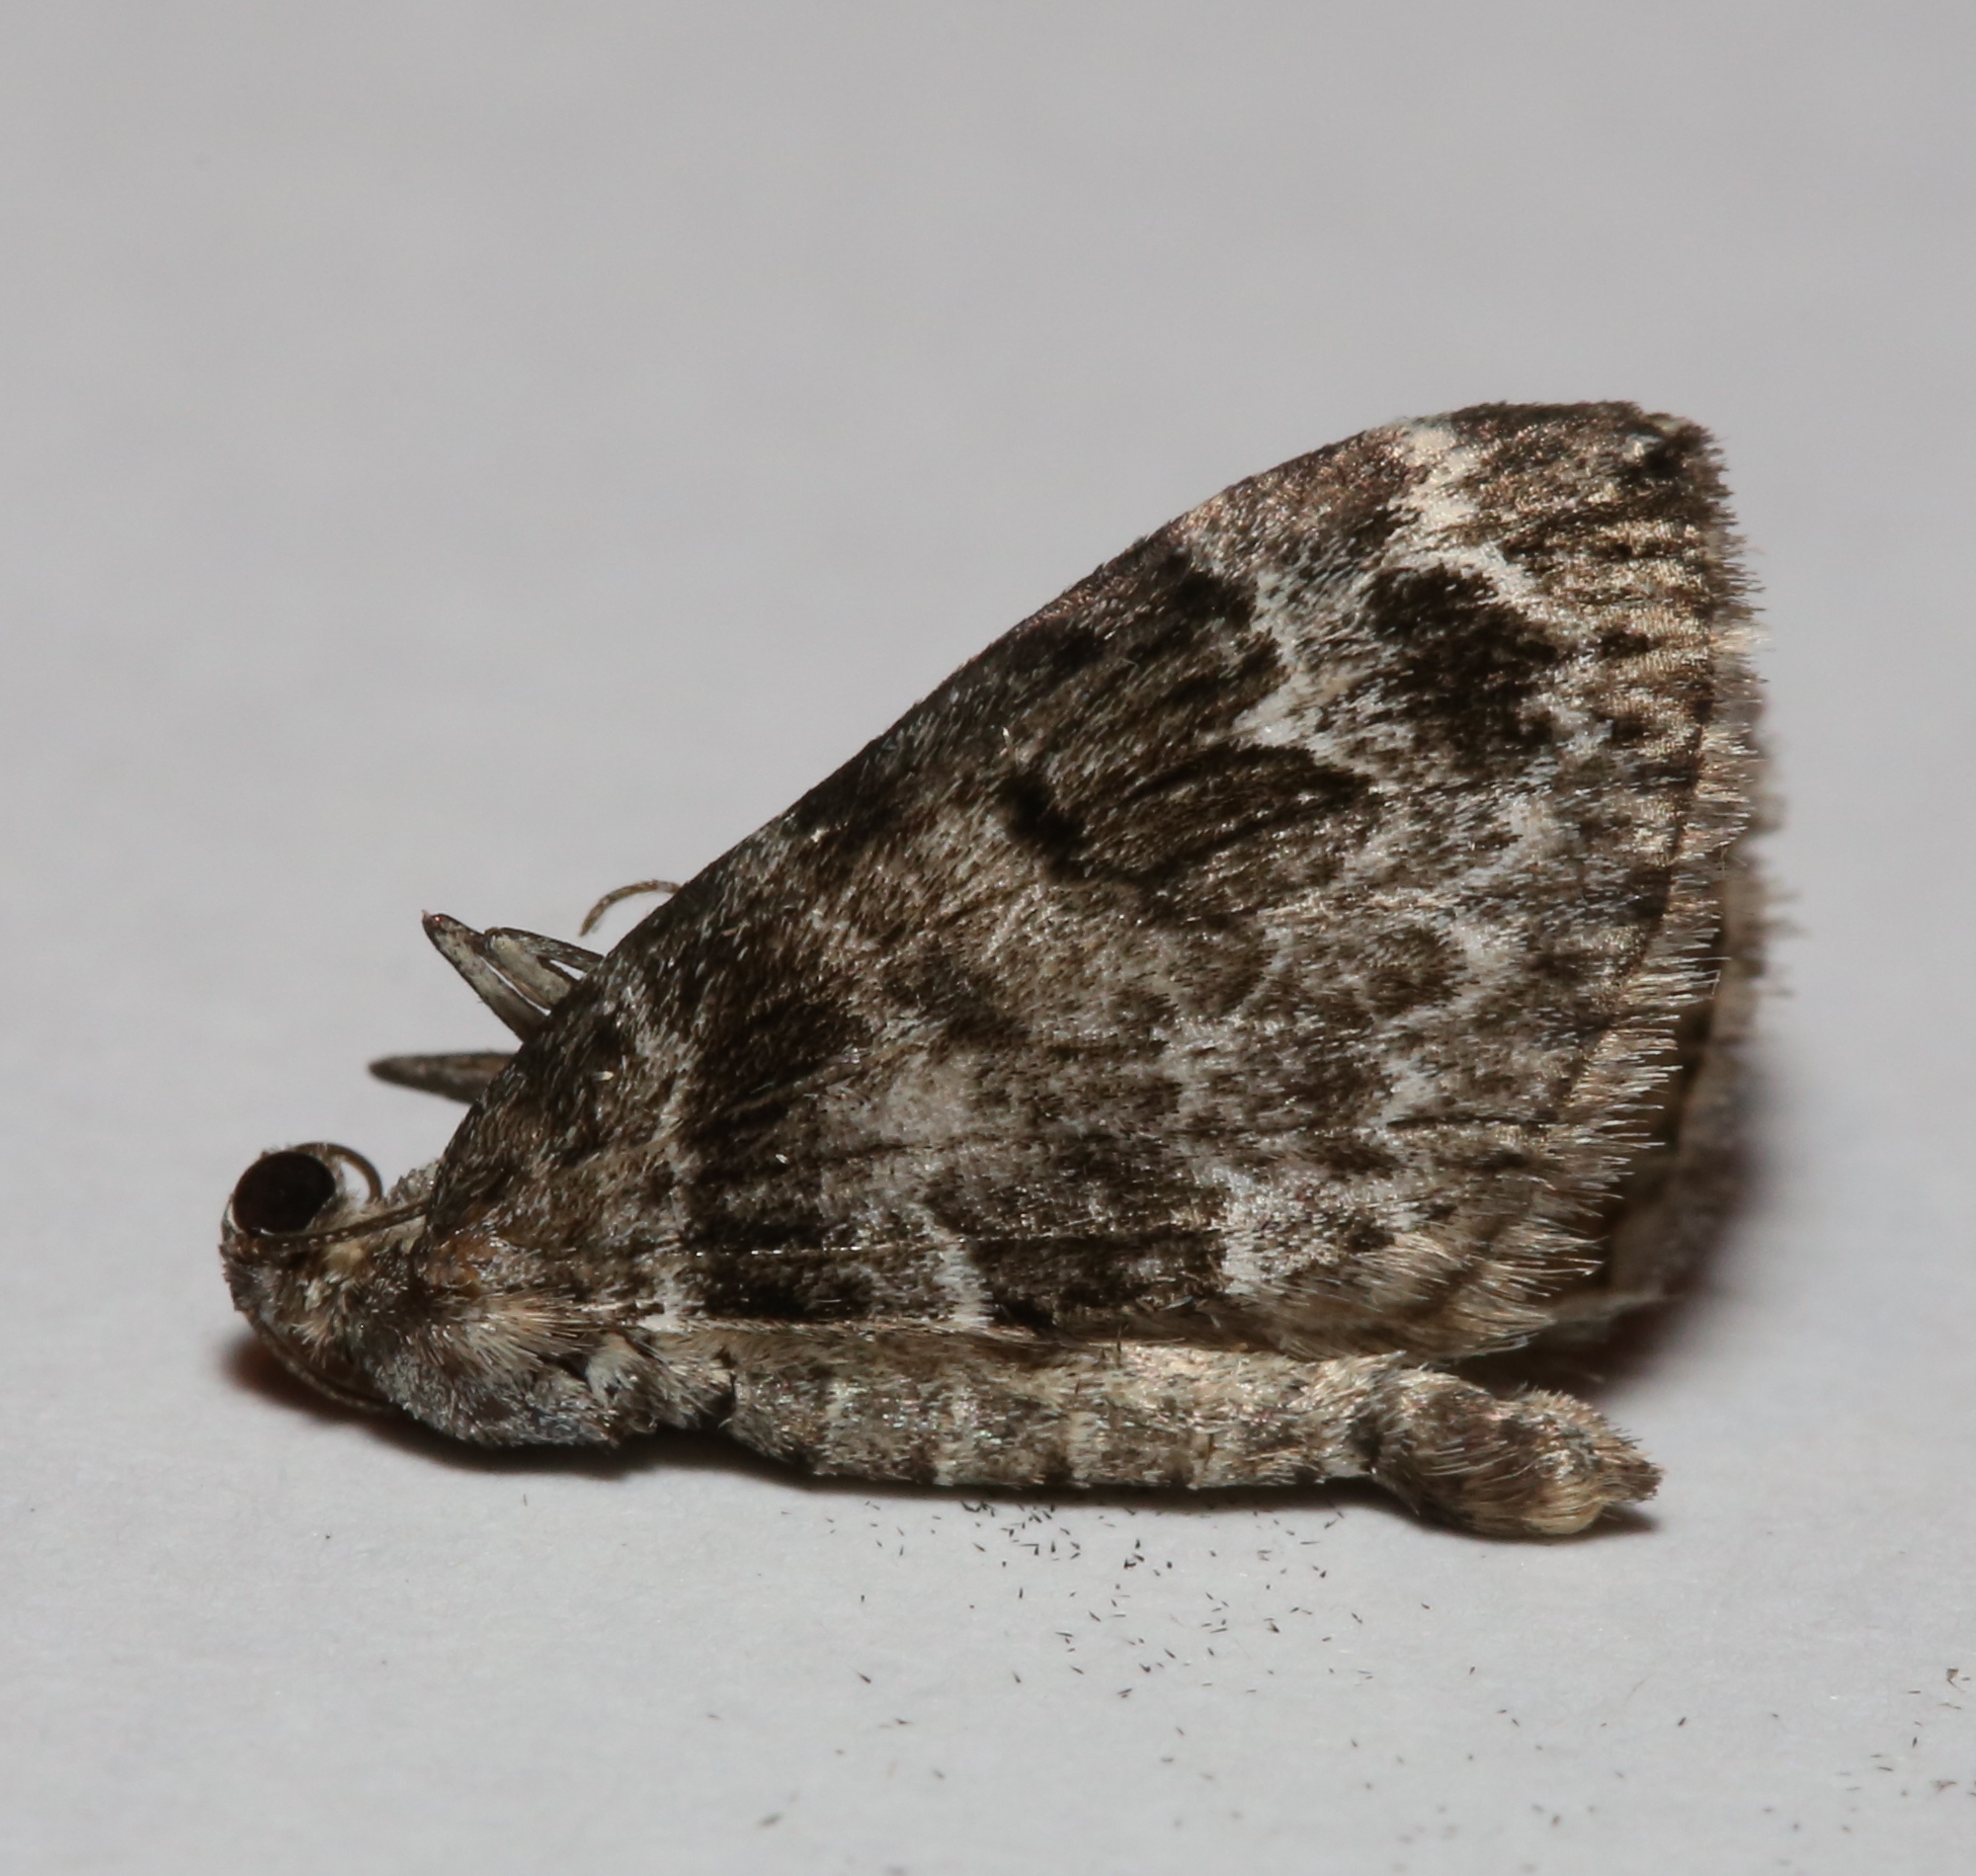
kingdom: Animalia
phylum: Arthropoda
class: Insecta
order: Lepidoptera
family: Geometridae
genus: Dysstroma
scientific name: Dysstroma hersiliata
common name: Orange-barred carpet
